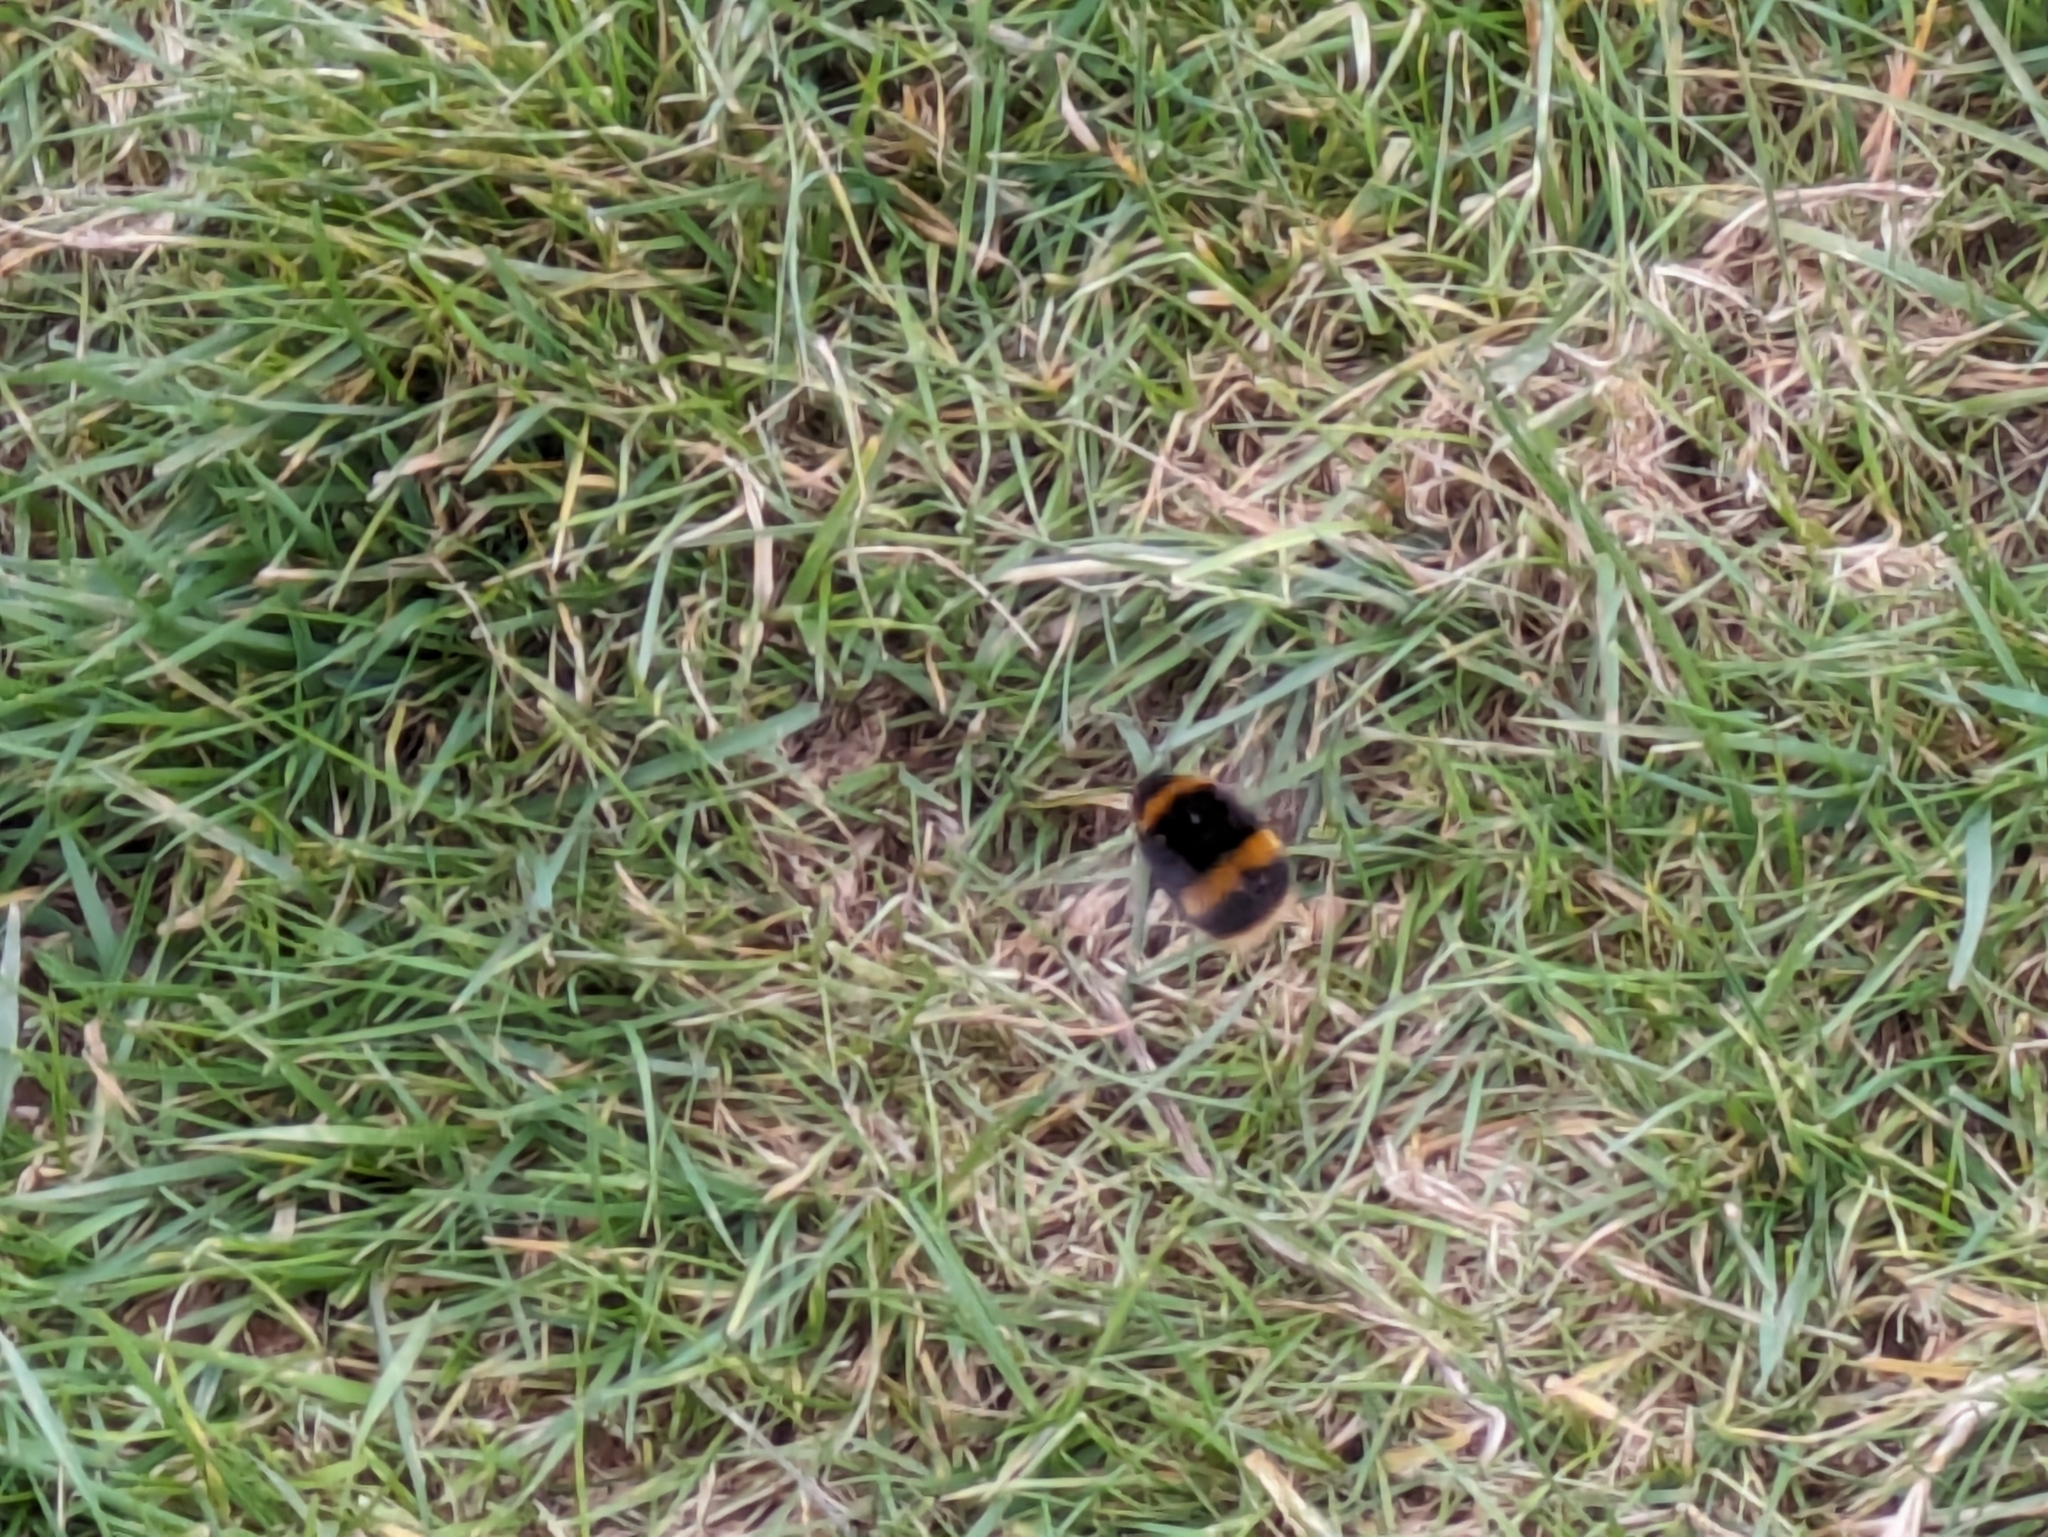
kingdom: Animalia
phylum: Arthropoda
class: Insecta
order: Hymenoptera
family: Apidae
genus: Bombus
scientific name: Bombus terrestris
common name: Buff-tailed bumblebee
